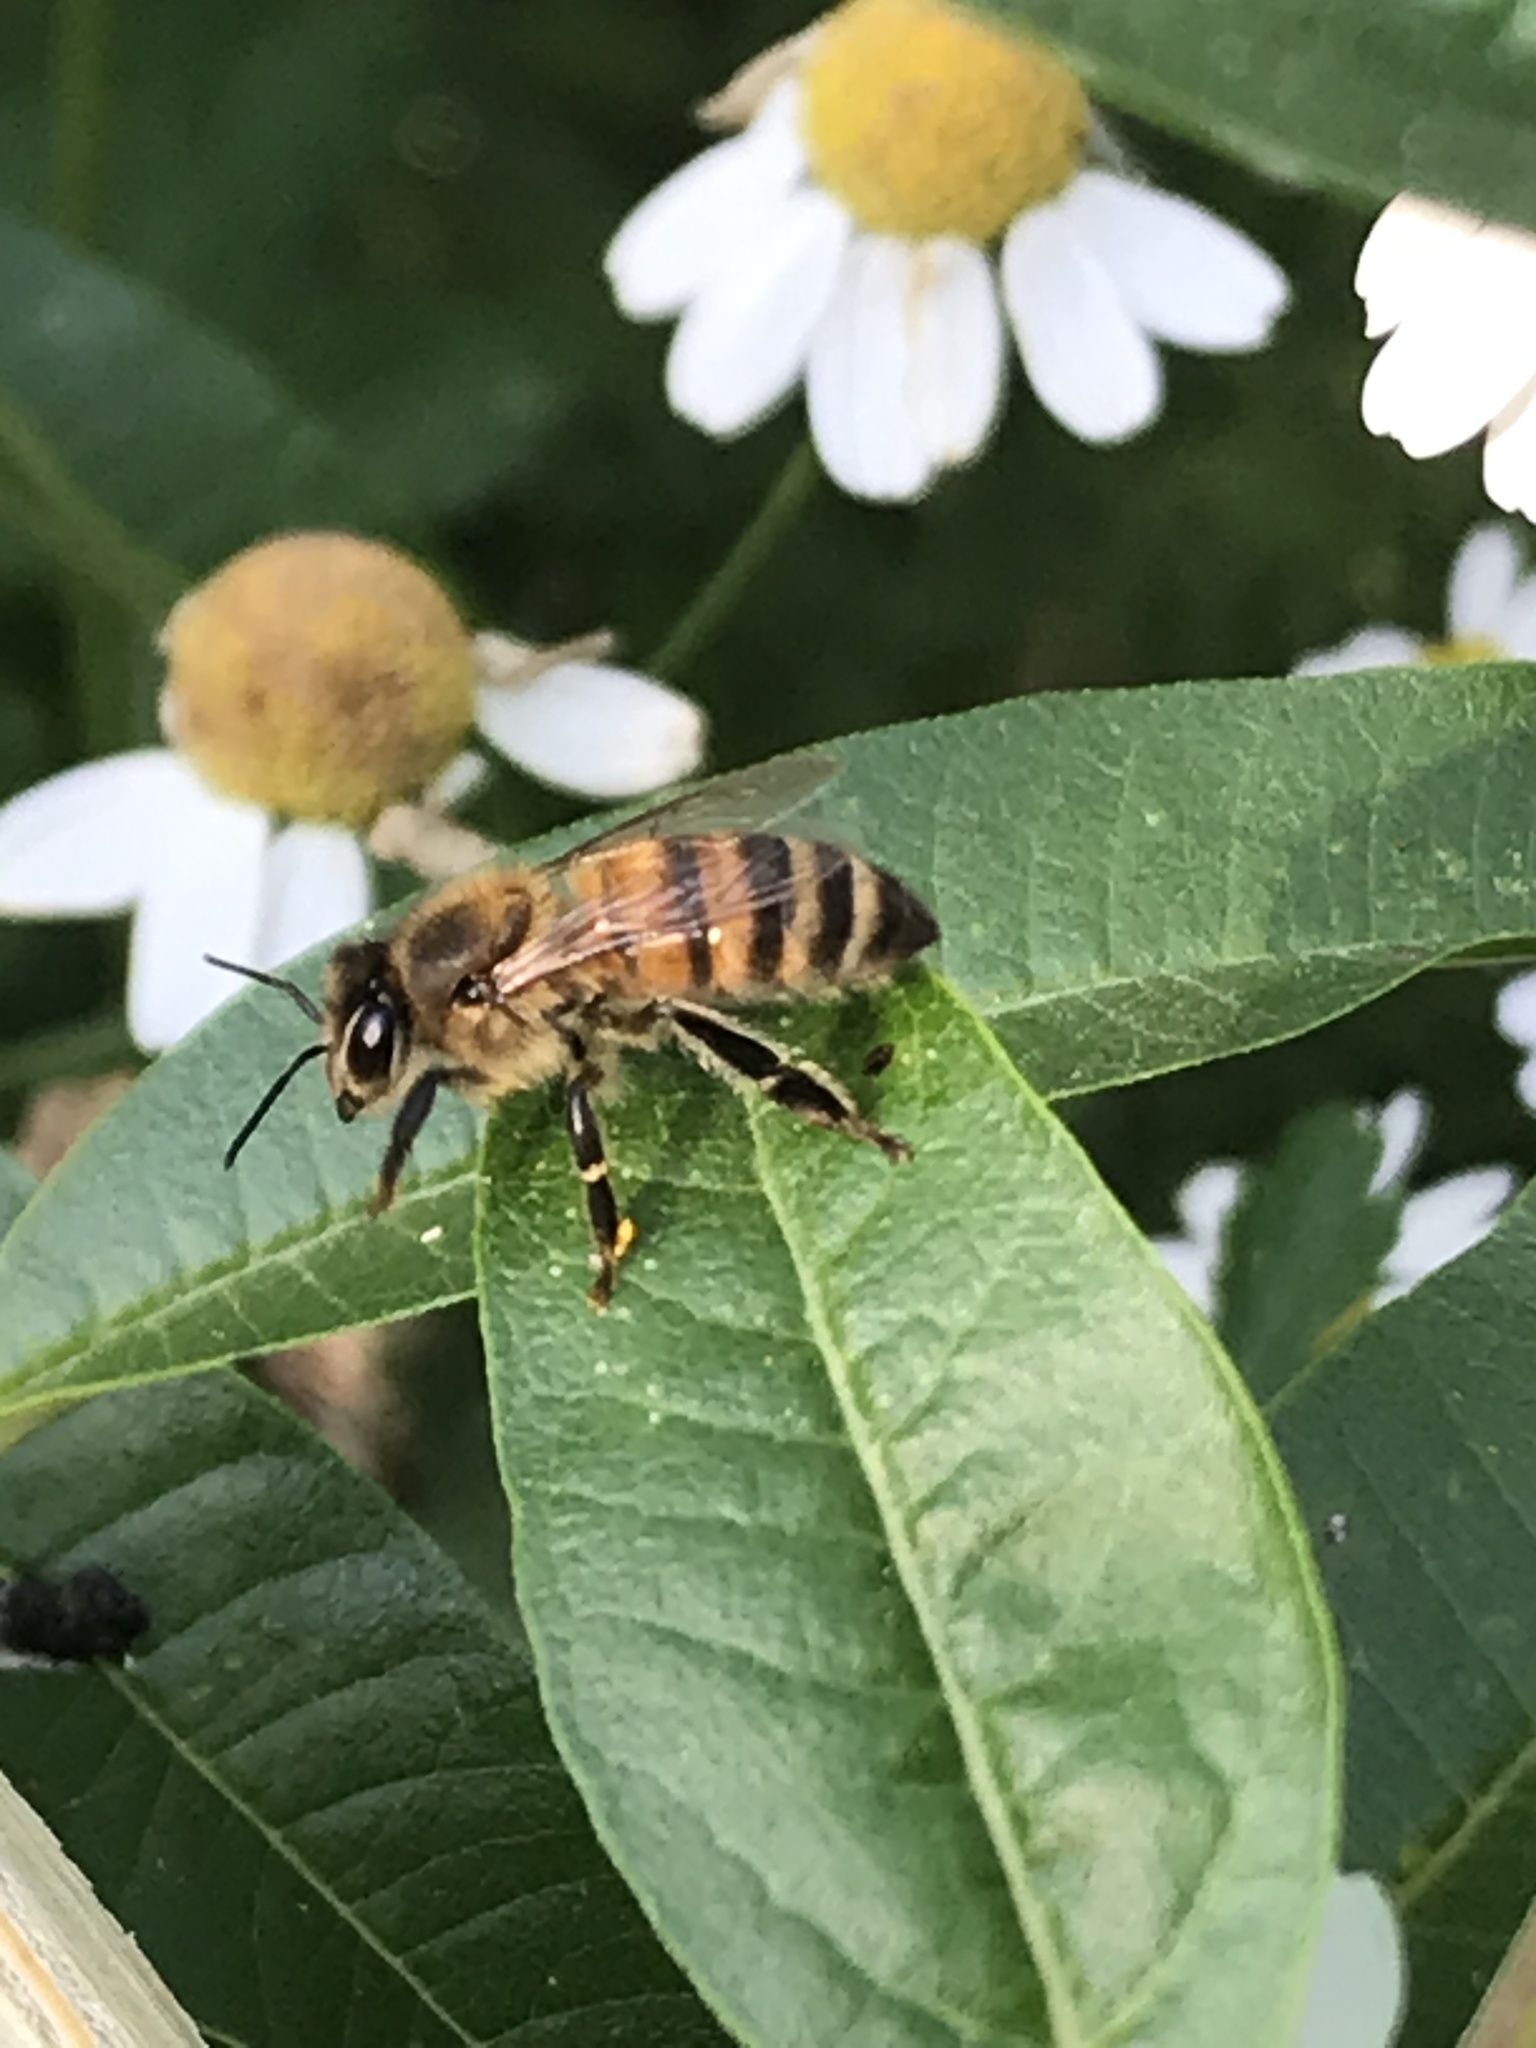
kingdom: Animalia
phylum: Arthropoda
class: Insecta
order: Hymenoptera
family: Apidae
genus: Apis
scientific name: Apis mellifera
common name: Honey bee
